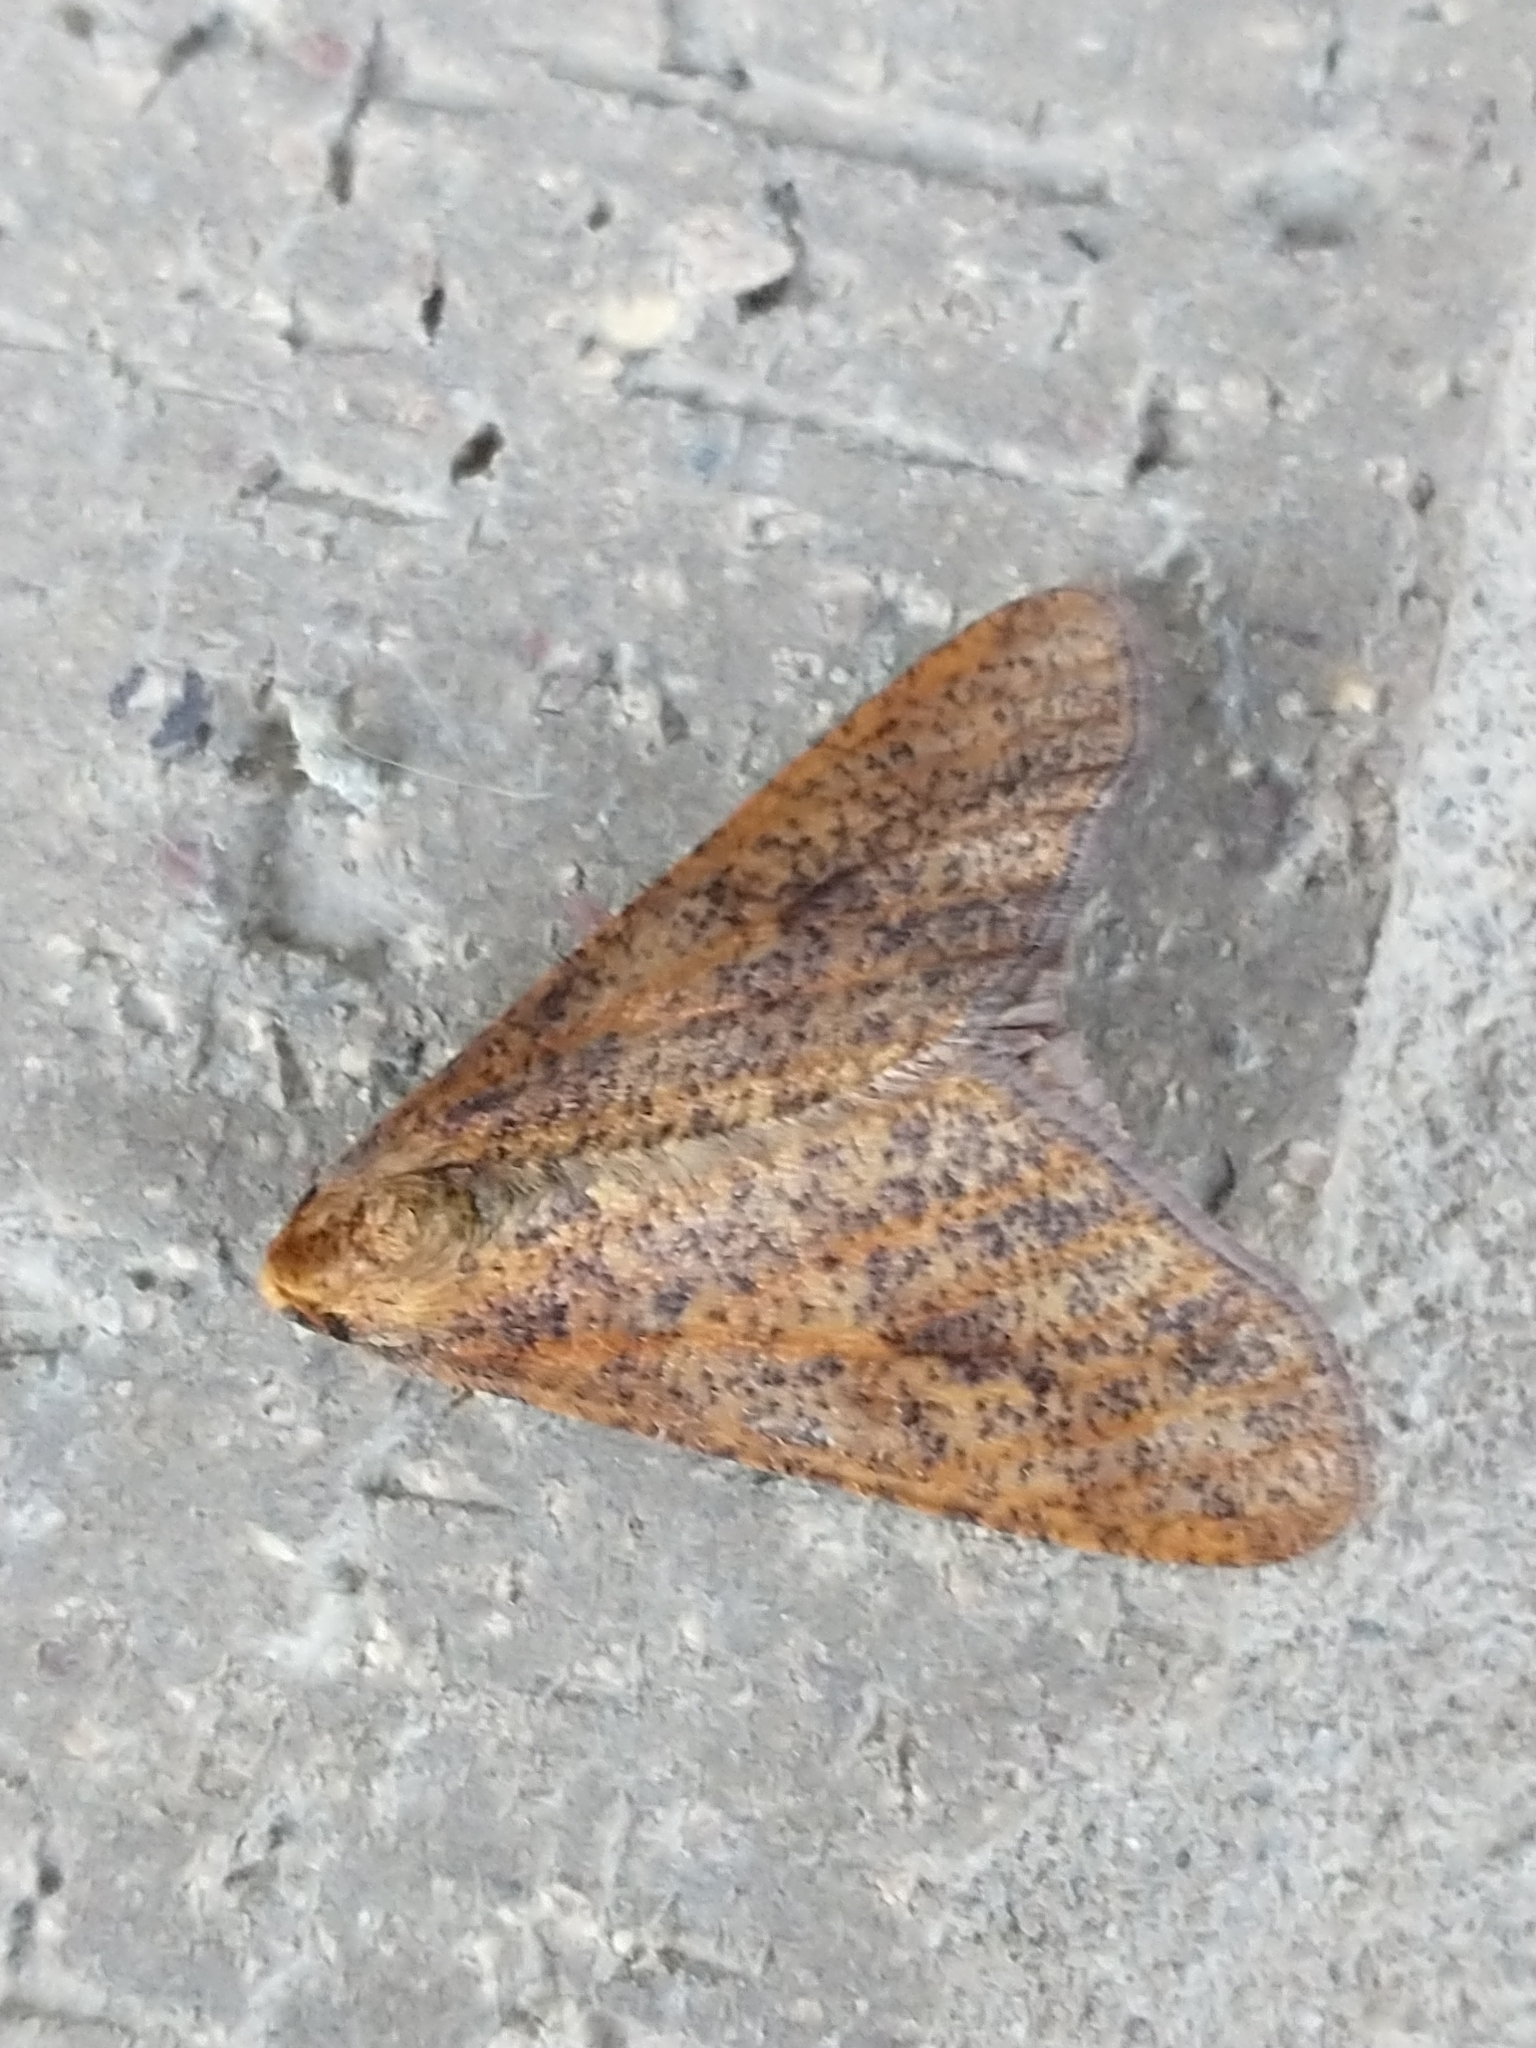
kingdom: Animalia
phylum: Arthropoda
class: Insecta
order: Lepidoptera
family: Geometridae
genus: Erannis
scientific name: Erannis defoliaria
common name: Mottled umber
